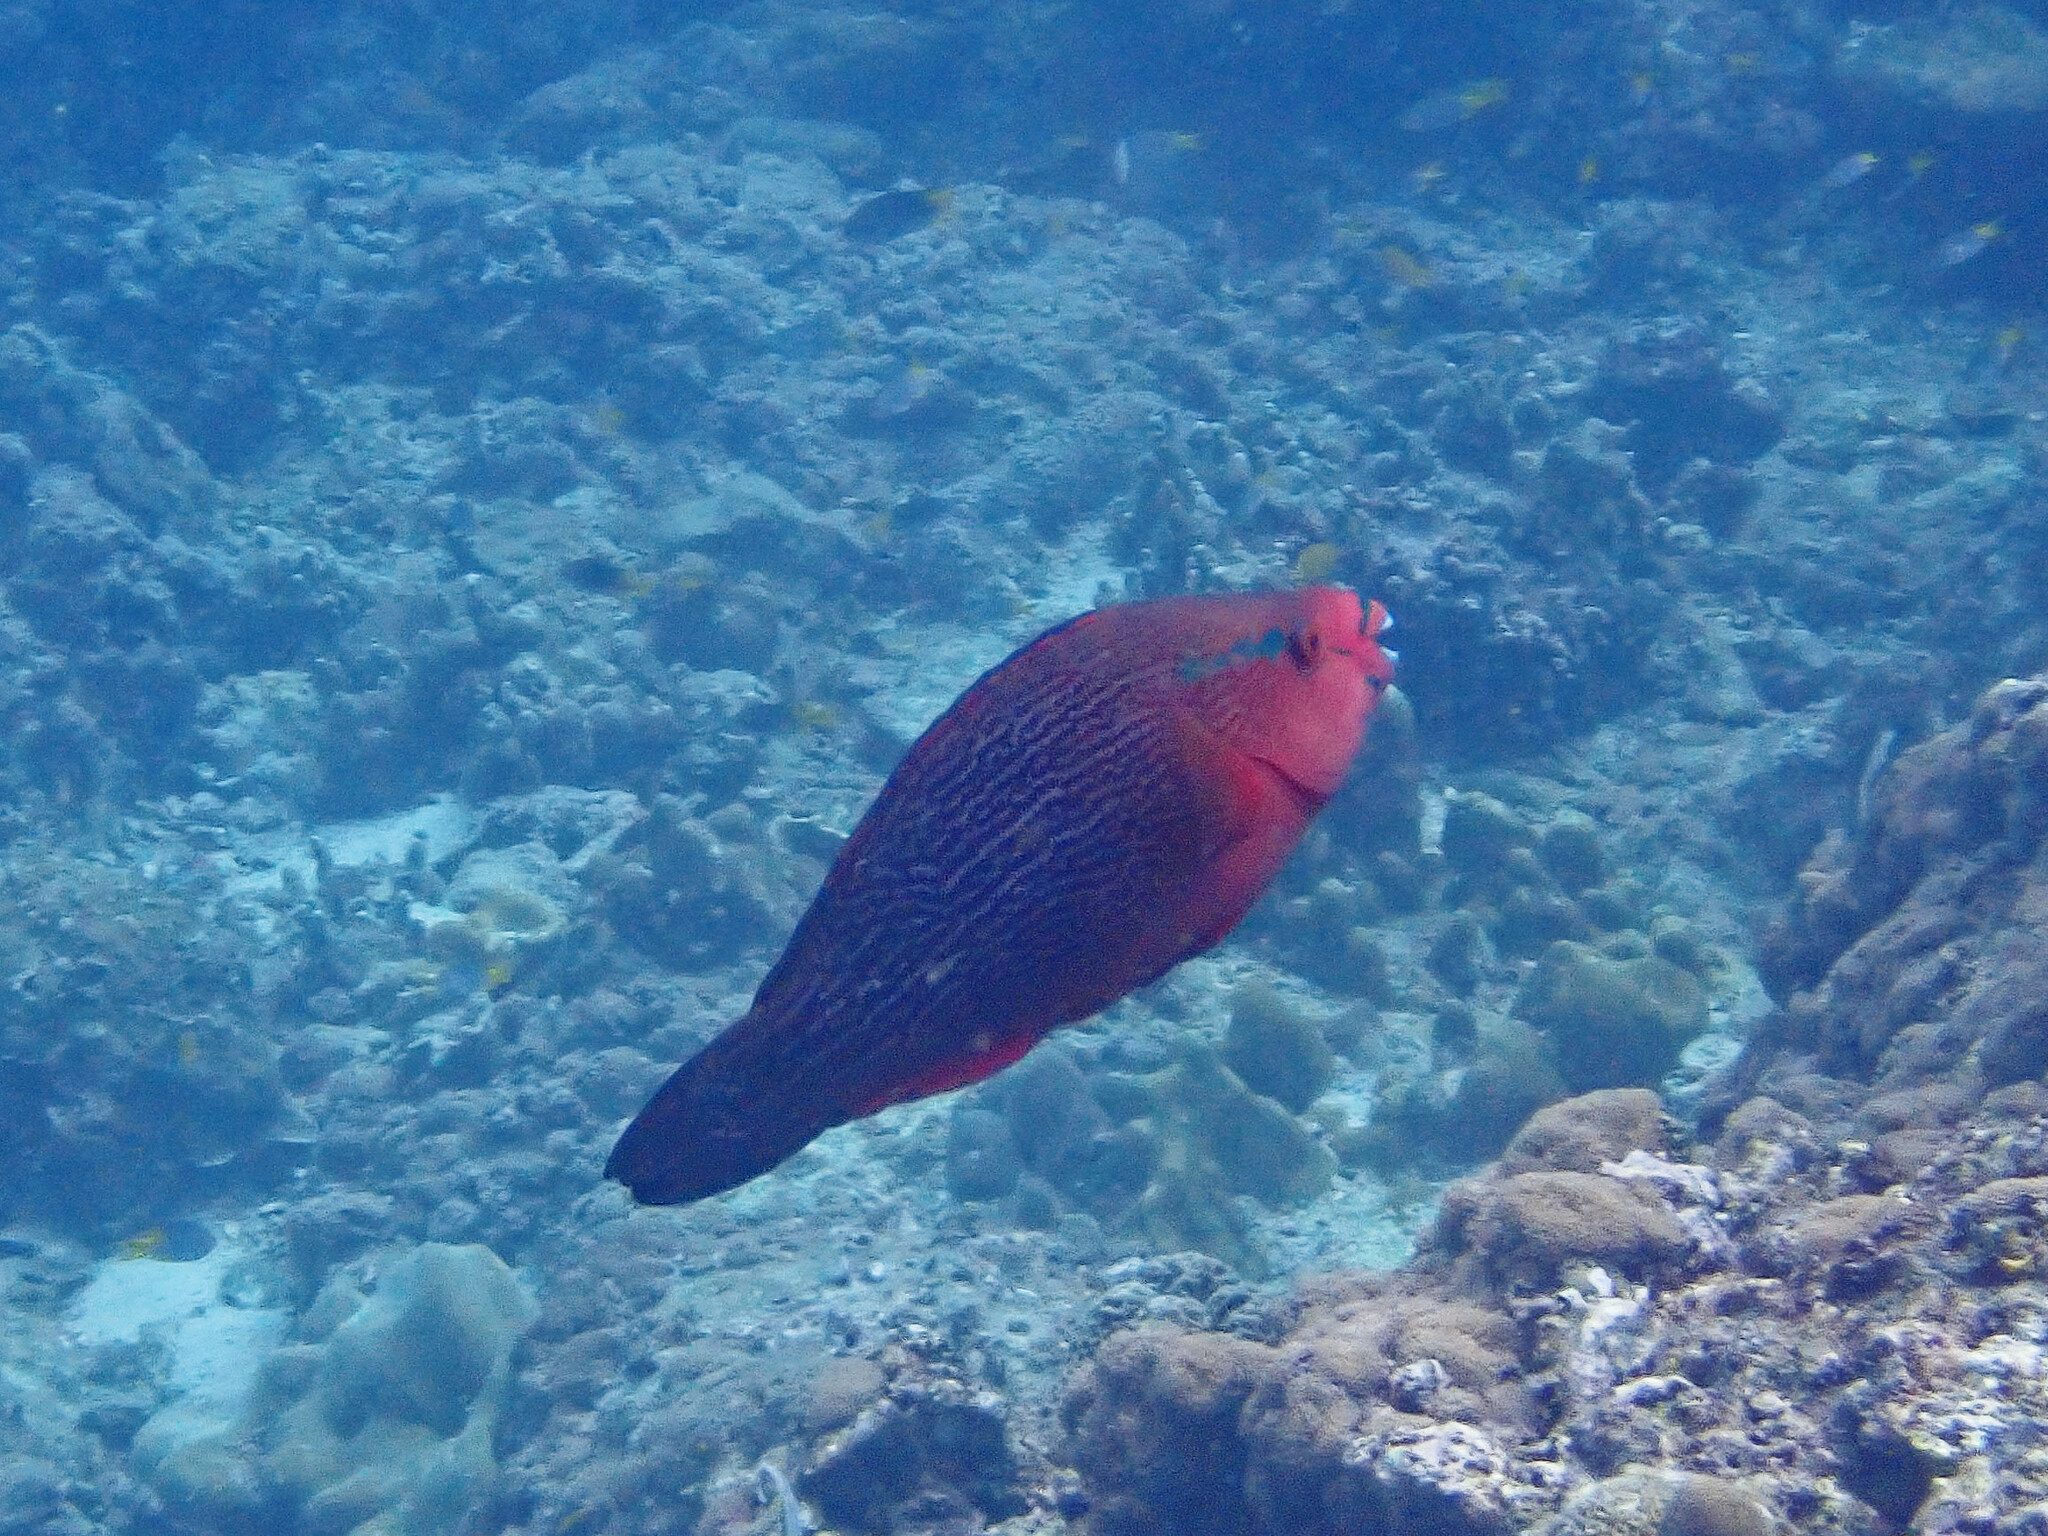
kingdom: Animalia
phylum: Chordata
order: Perciformes
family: Scaridae
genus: Scarus
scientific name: Scarus niger
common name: Dusky parrotfish
